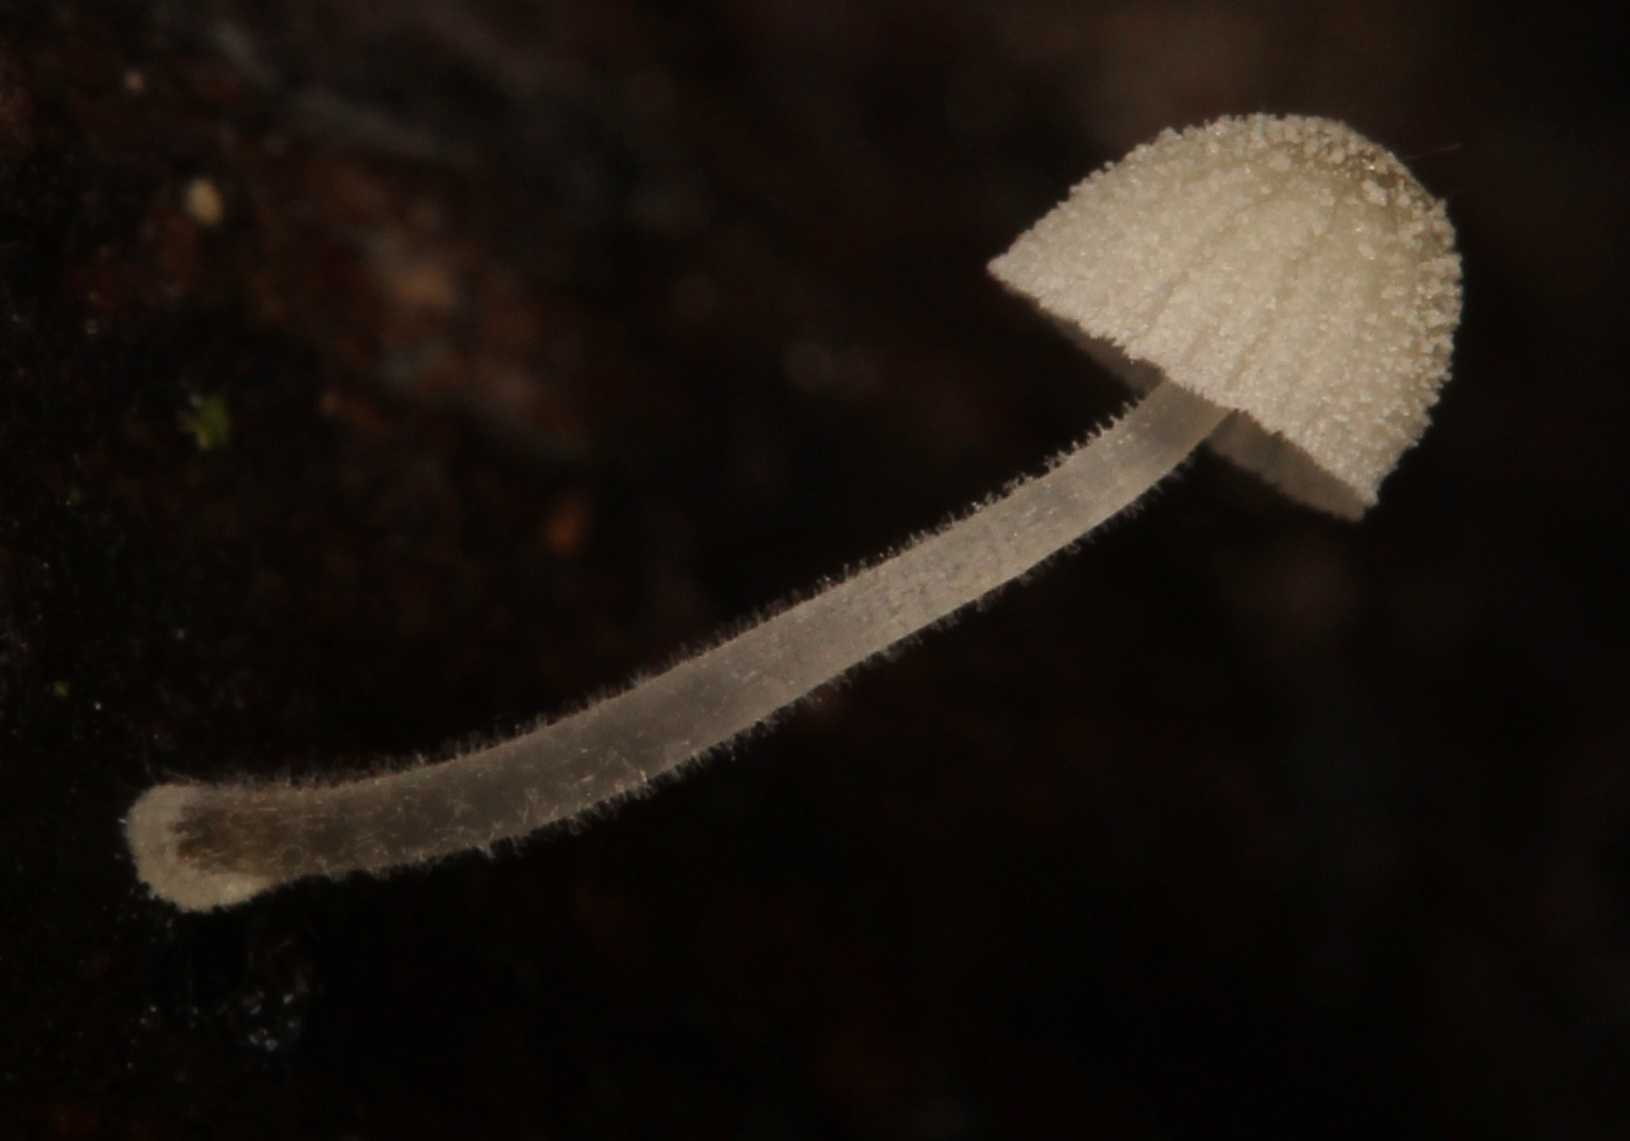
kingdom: Fungi
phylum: Basidiomycota
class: Agaricomycetes
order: Agaricales
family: Mycenaceae
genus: Mycena
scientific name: Mycena
